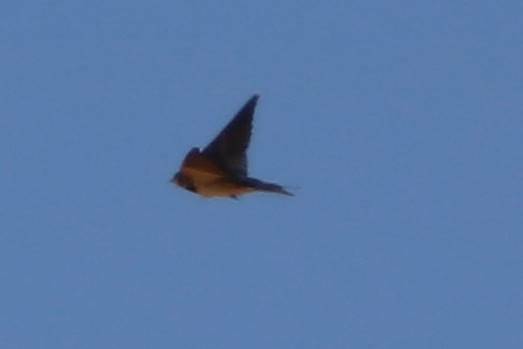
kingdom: Animalia
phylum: Chordata
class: Aves
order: Passeriformes
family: Hirundinidae
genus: Hirundo
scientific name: Hirundo rustica
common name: Barn swallow
